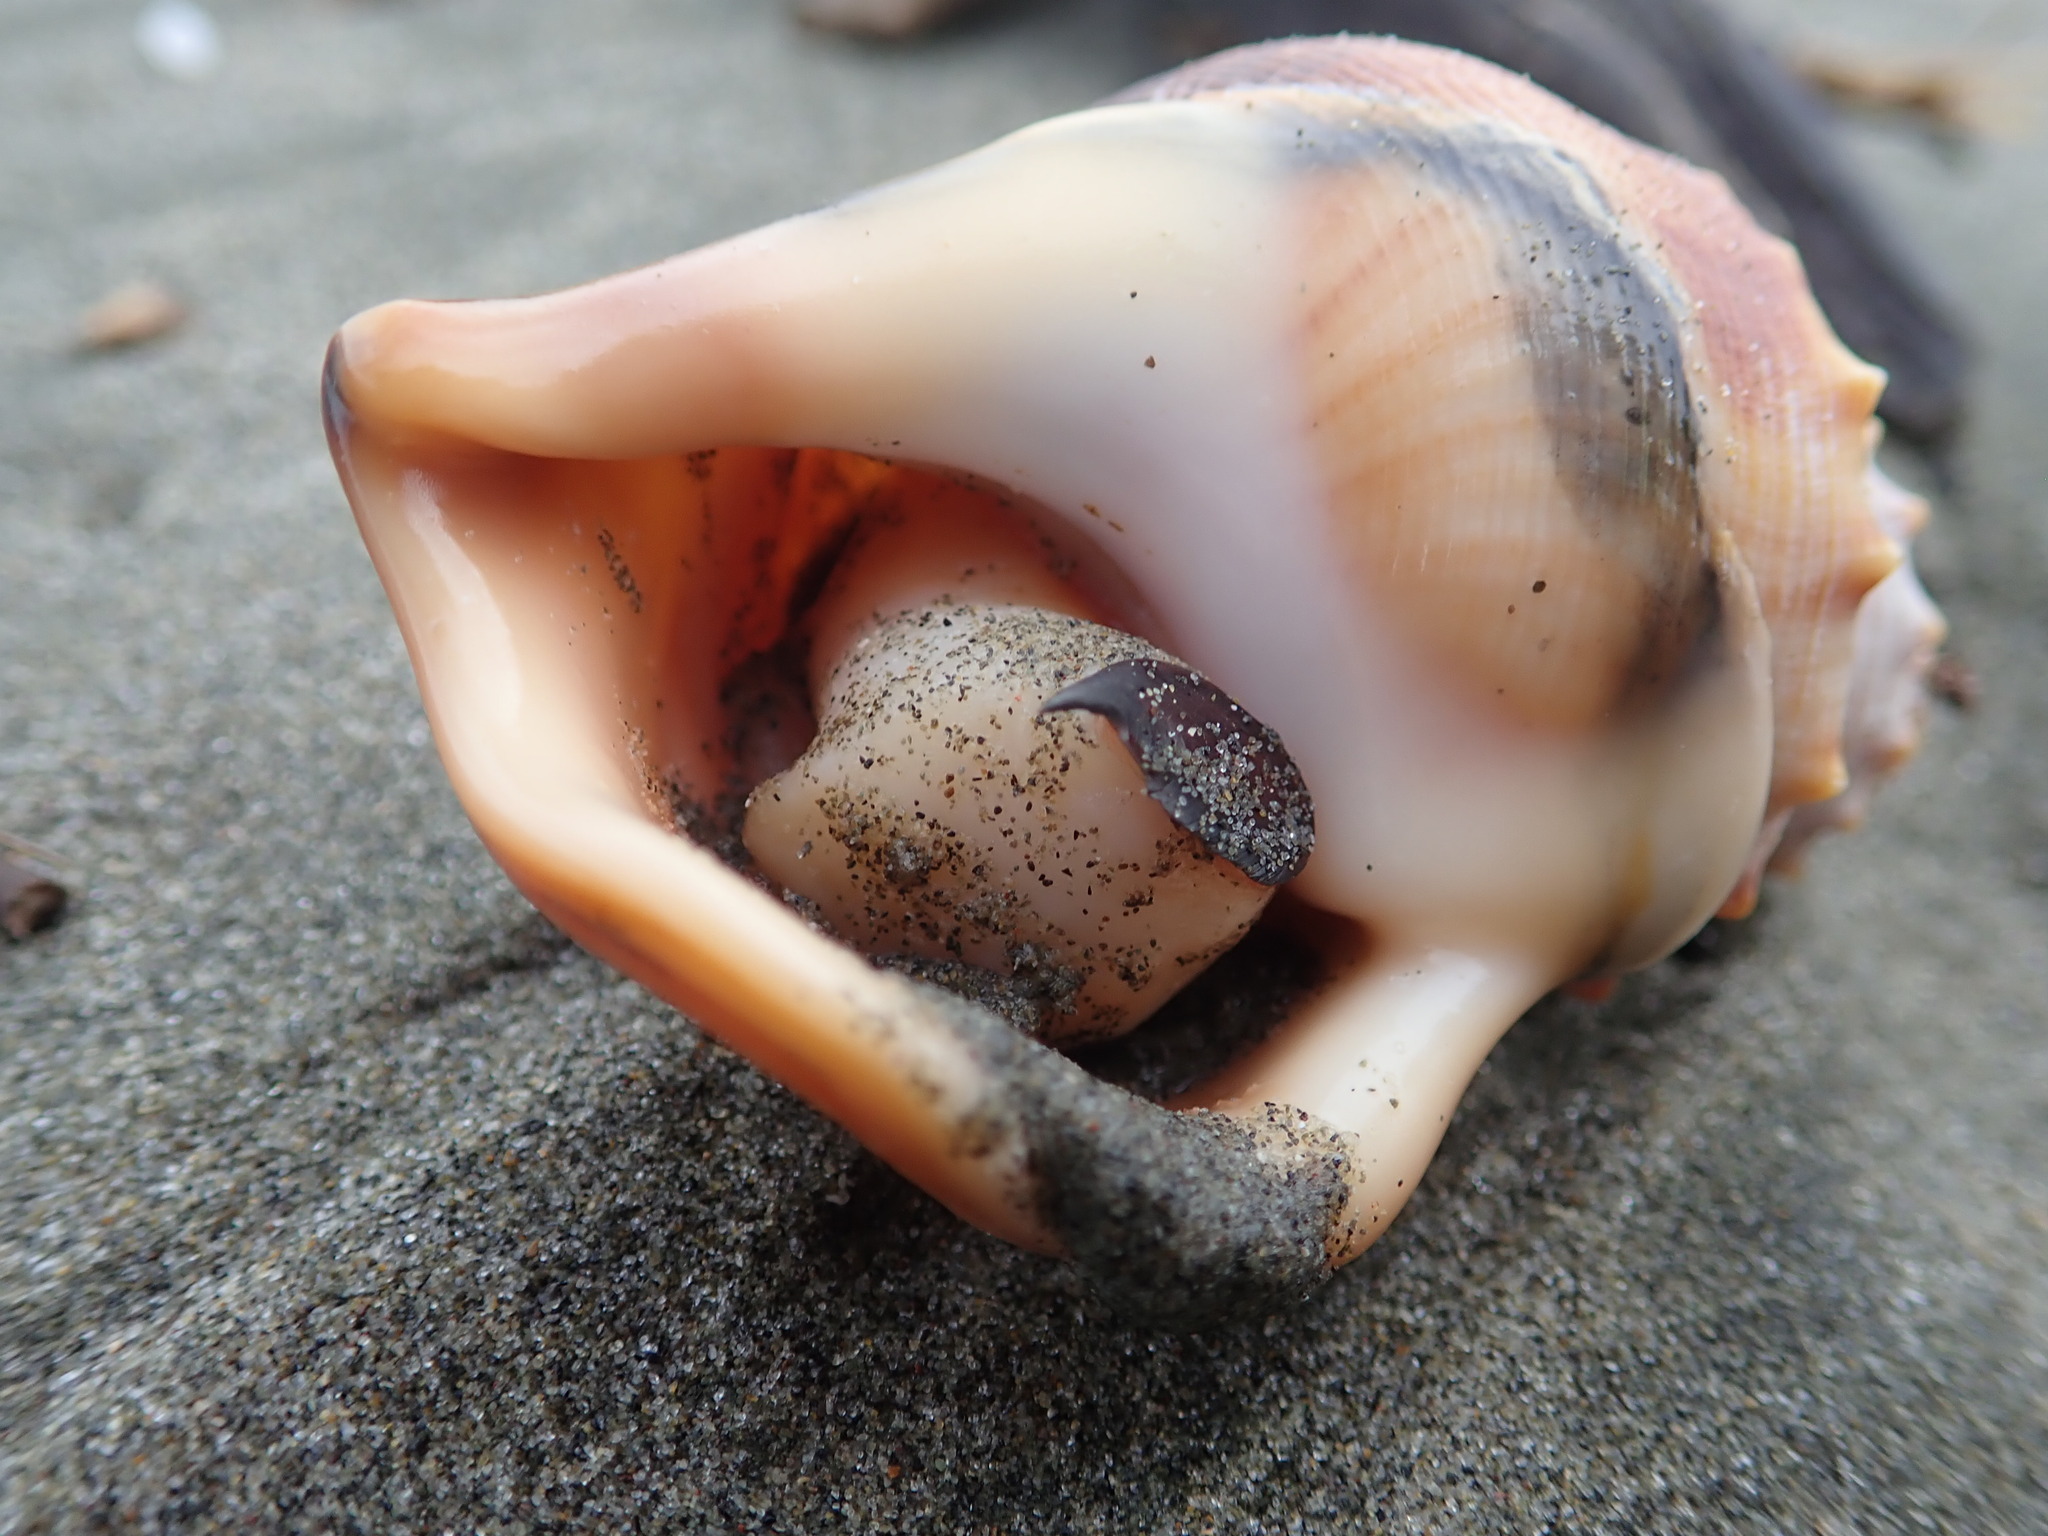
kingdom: Animalia
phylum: Mollusca
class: Gastropoda
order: Littorinimorpha
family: Struthiolariidae
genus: Struthiolaria
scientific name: Struthiolaria papulosa
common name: Large ostrich foot
